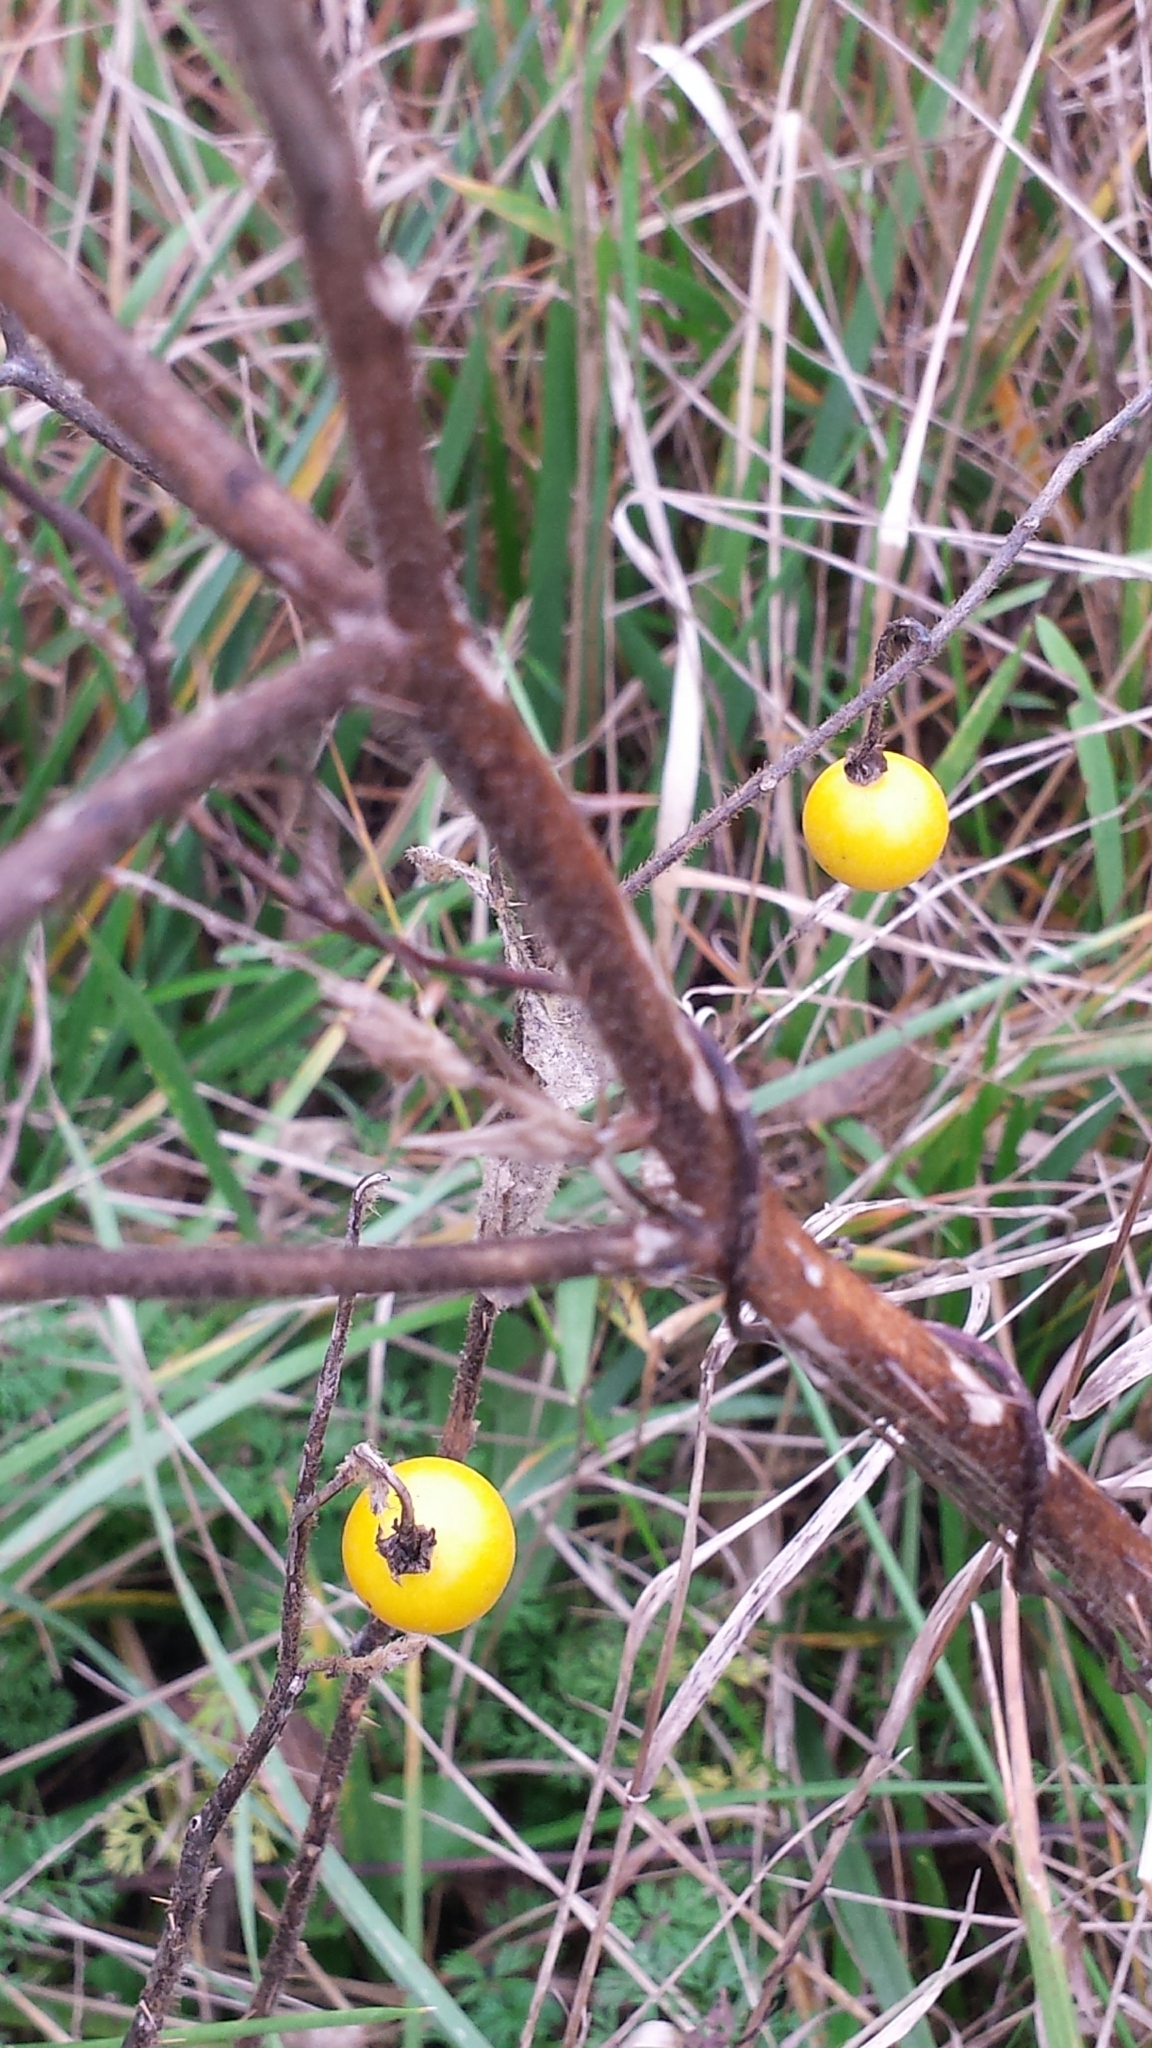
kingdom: Plantae
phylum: Tracheophyta
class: Magnoliopsida
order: Solanales
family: Solanaceae
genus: Solanum
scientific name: Solanum carolinense
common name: Horse-nettle
